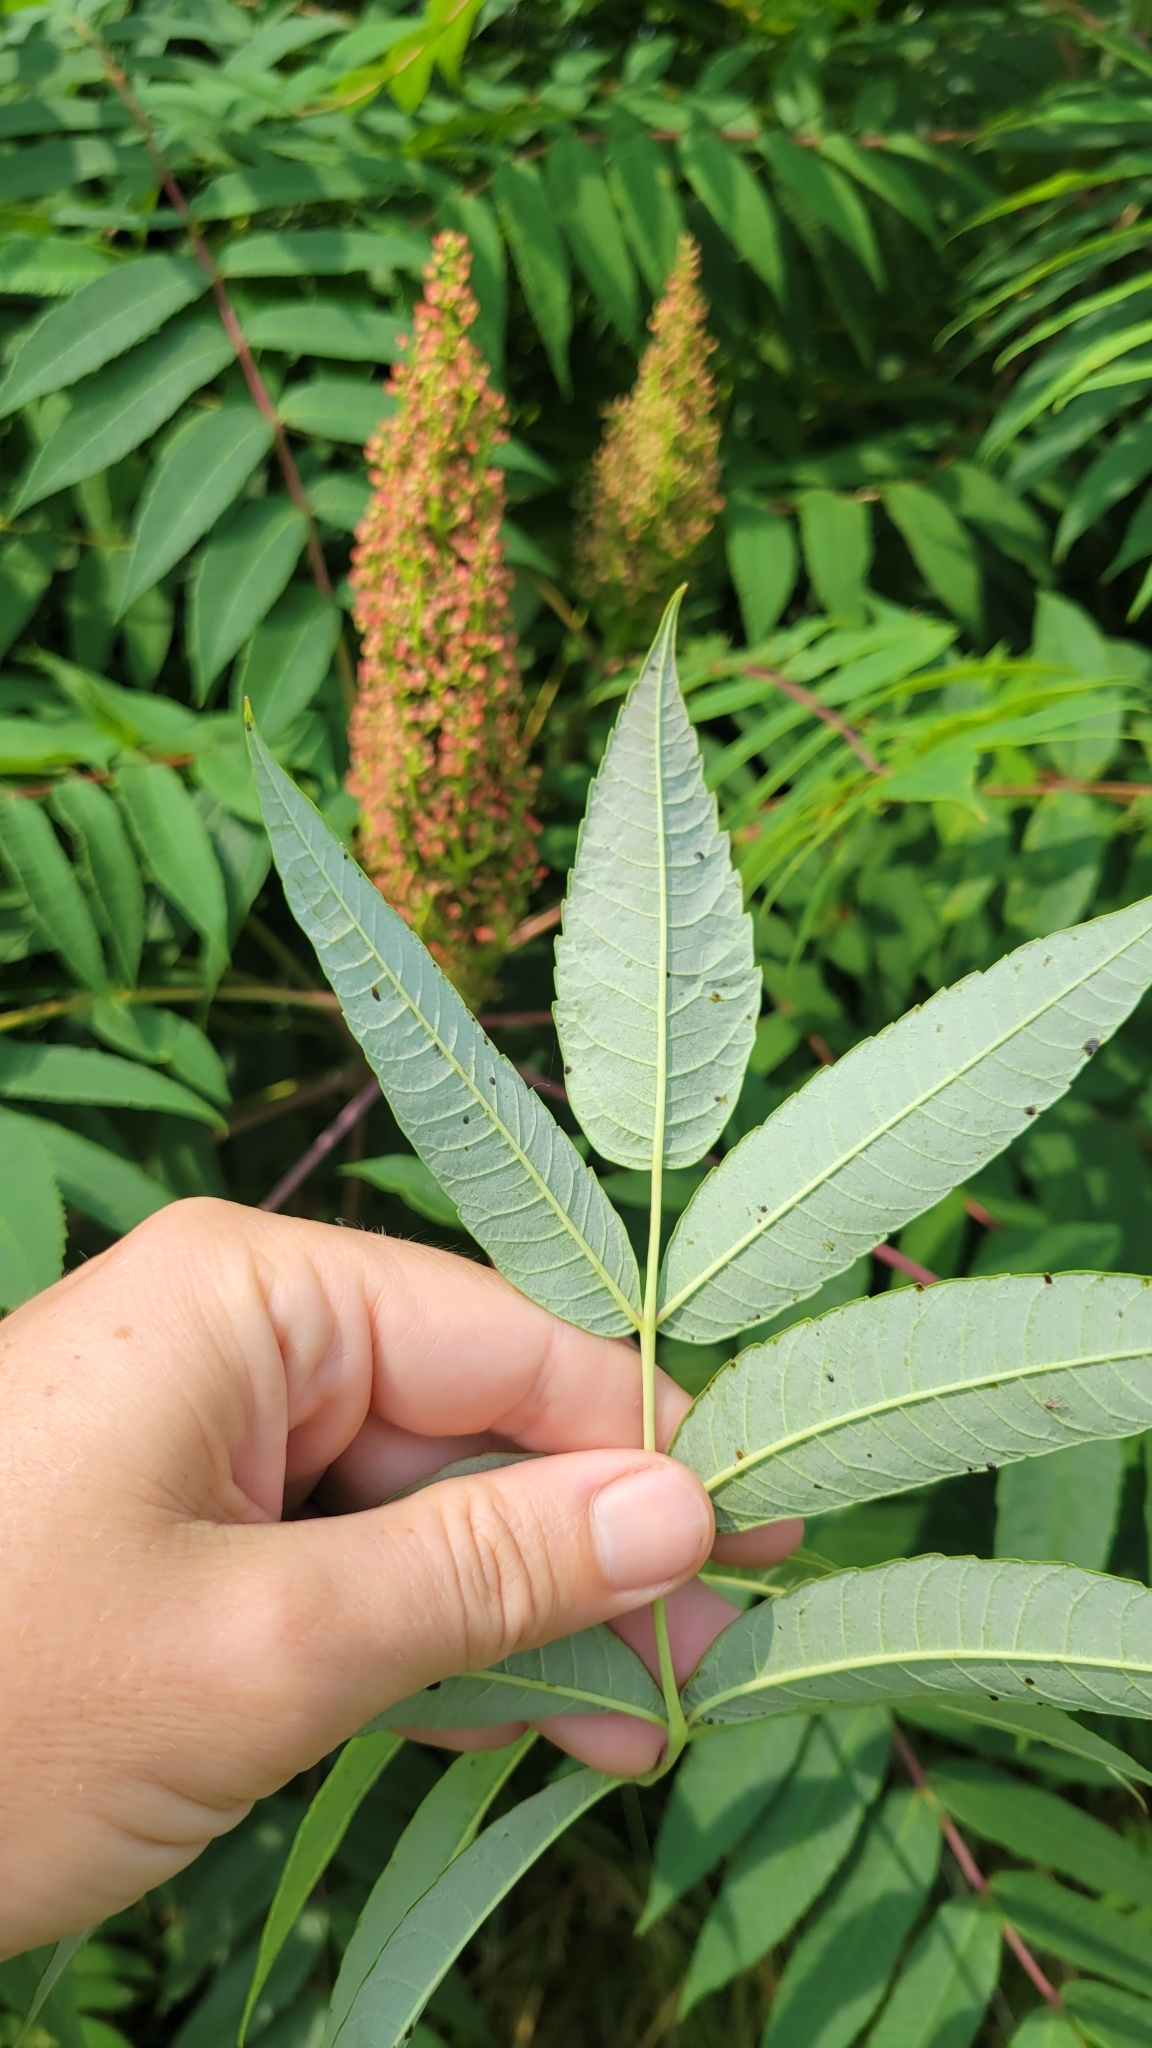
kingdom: Plantae
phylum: Tracheophyta
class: Magnoliopsida
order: Sapindales
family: Anacardiaceae
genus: Rhus
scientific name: Rhus glabra
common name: Scarlet sumac
